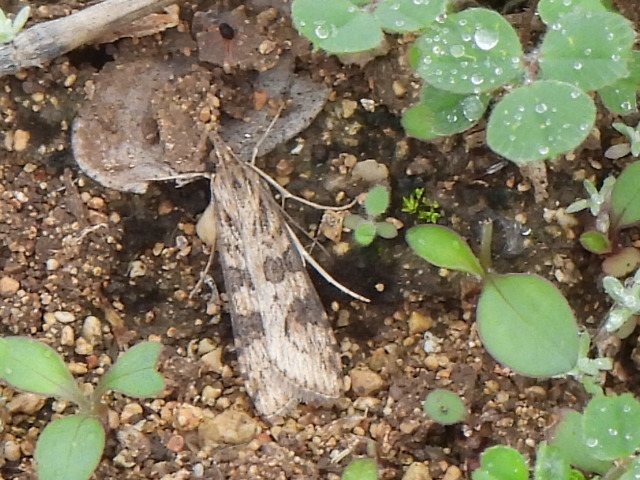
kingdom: Animalia
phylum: Arthropoda
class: Insecta
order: Lepidoptera
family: Crambidae
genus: Nomophila
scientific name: Nomophila nearctica
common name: American rush veneer
